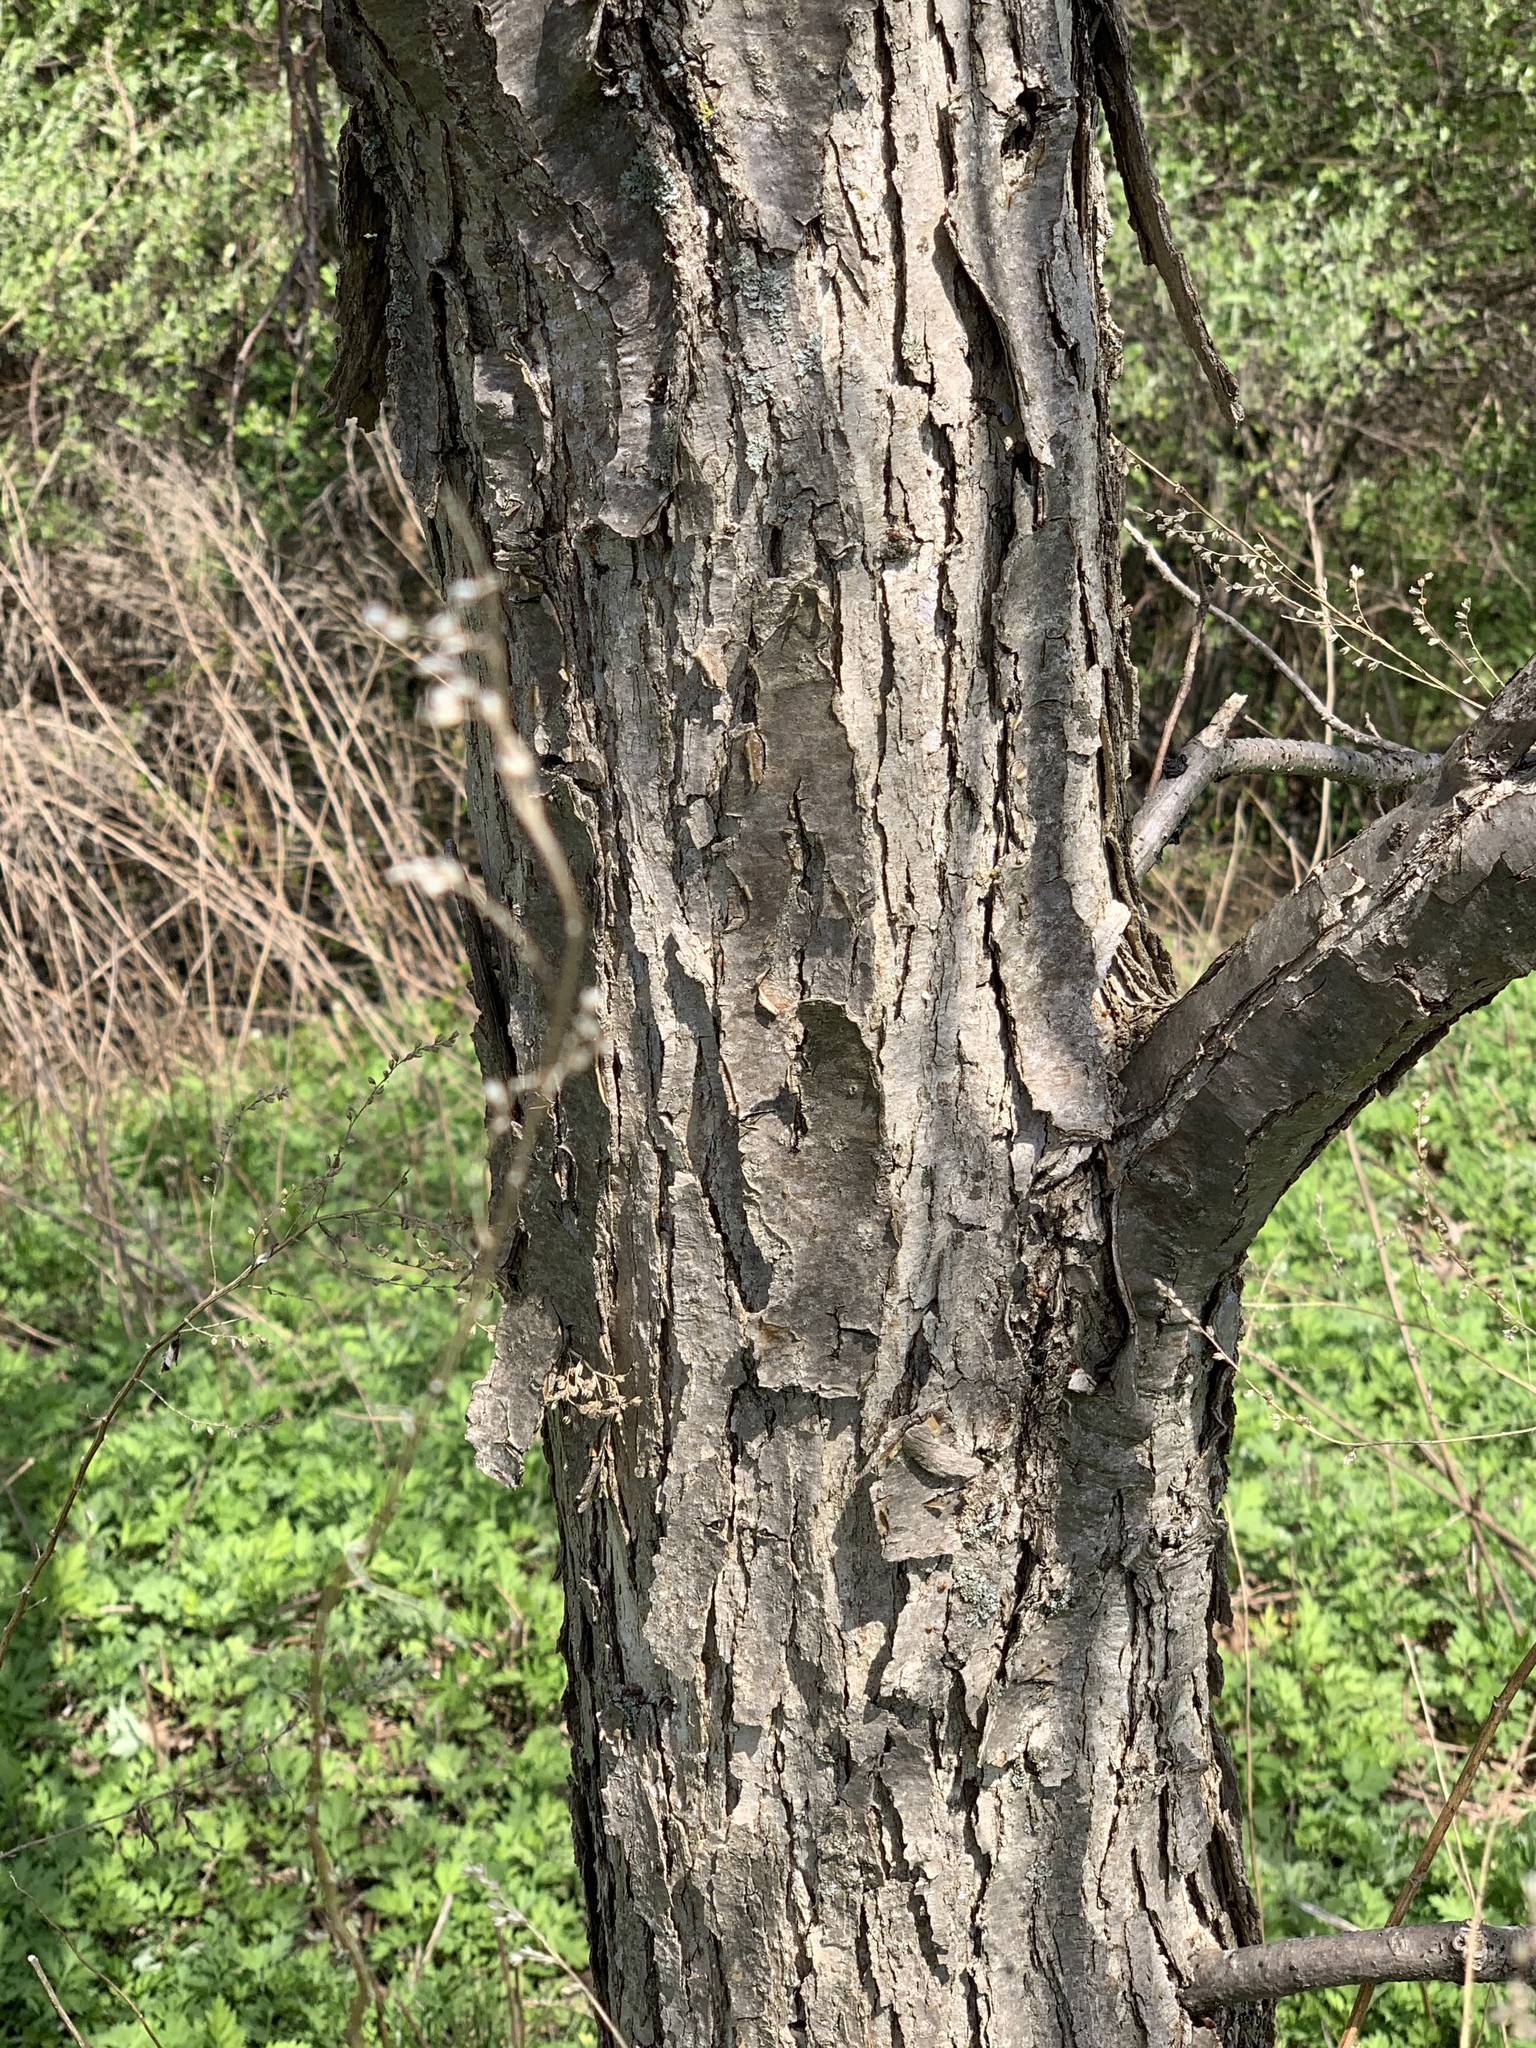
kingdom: Plantae
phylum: Tracheophyta
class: Magnoliopsida
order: Fagales
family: Fagaceae
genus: Quercus
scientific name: Quercus bicolor
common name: Swamp white oak
